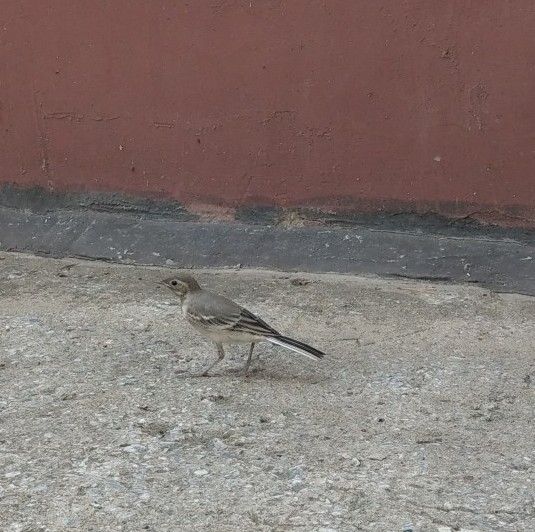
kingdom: Animalia
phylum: Chordata
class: Aves
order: Passeriformes
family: Motacillidae
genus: Motacilla
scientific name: Motacilla alba
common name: White wagtail
